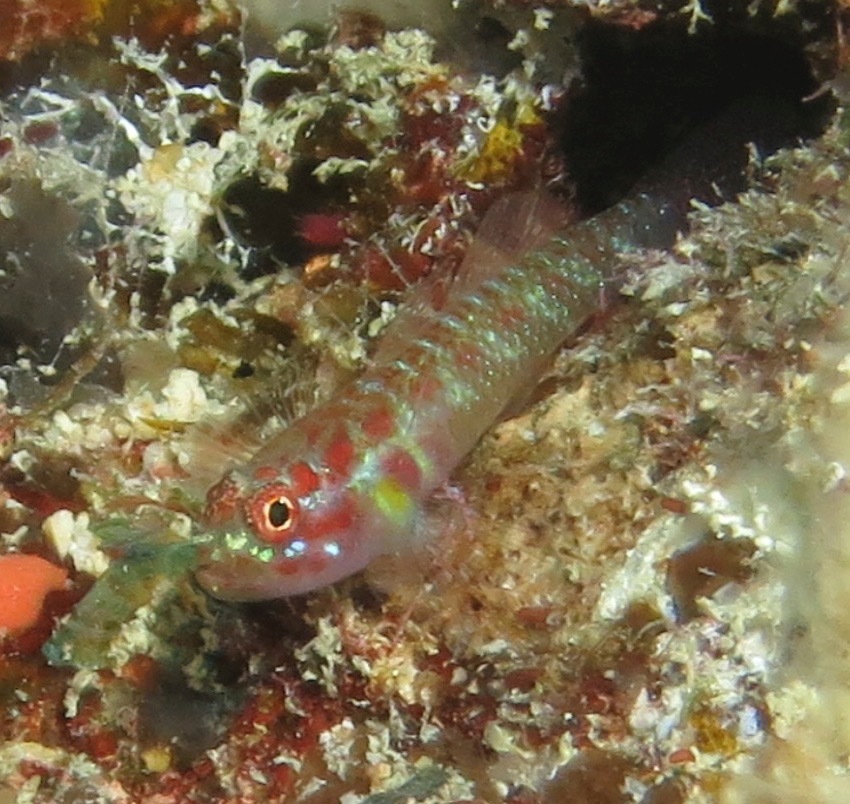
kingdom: Animalia
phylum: Chordata
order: Perciformes
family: Gobiidae
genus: Eviota
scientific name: Eviota teresae
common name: Terry's dwarfgoby
